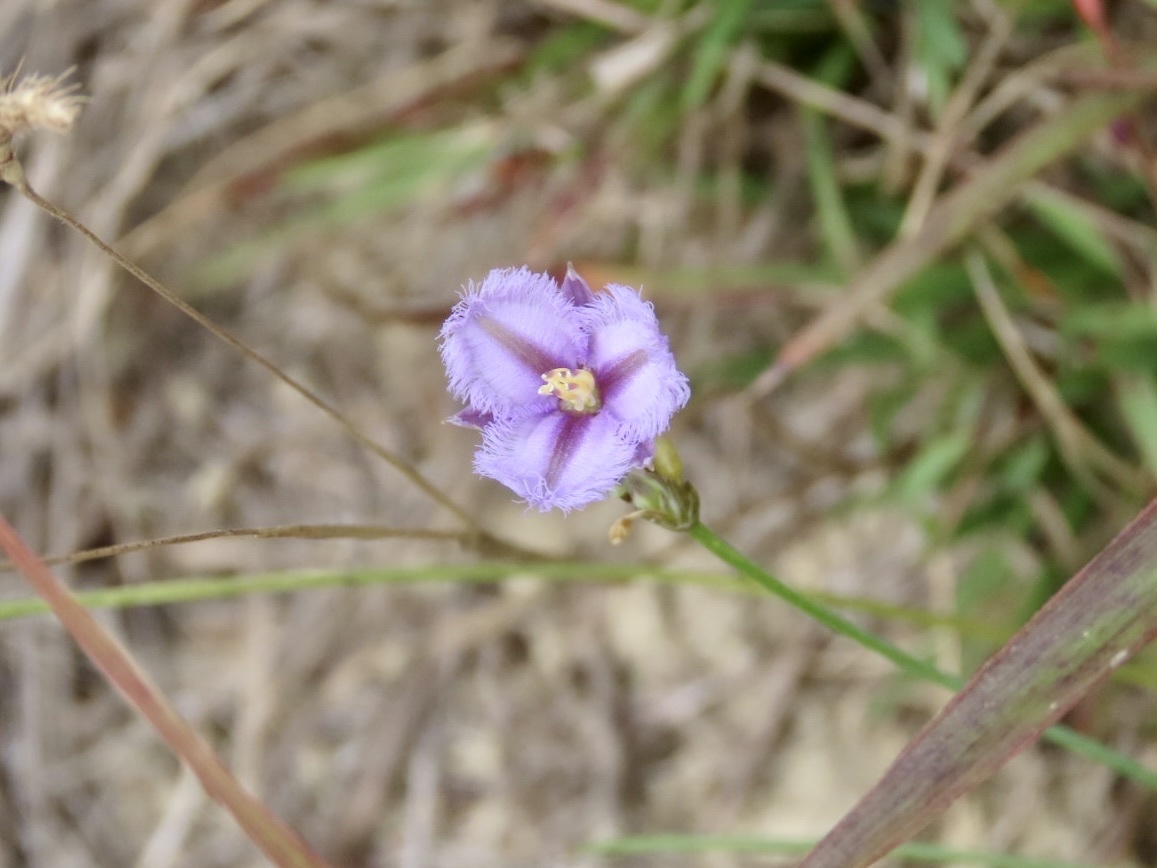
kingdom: Plantae
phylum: Tracheophyta
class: Liliopsida
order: Asparagales
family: Asparagaceae
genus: Thysanotus
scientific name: Thysanotus chinensis
